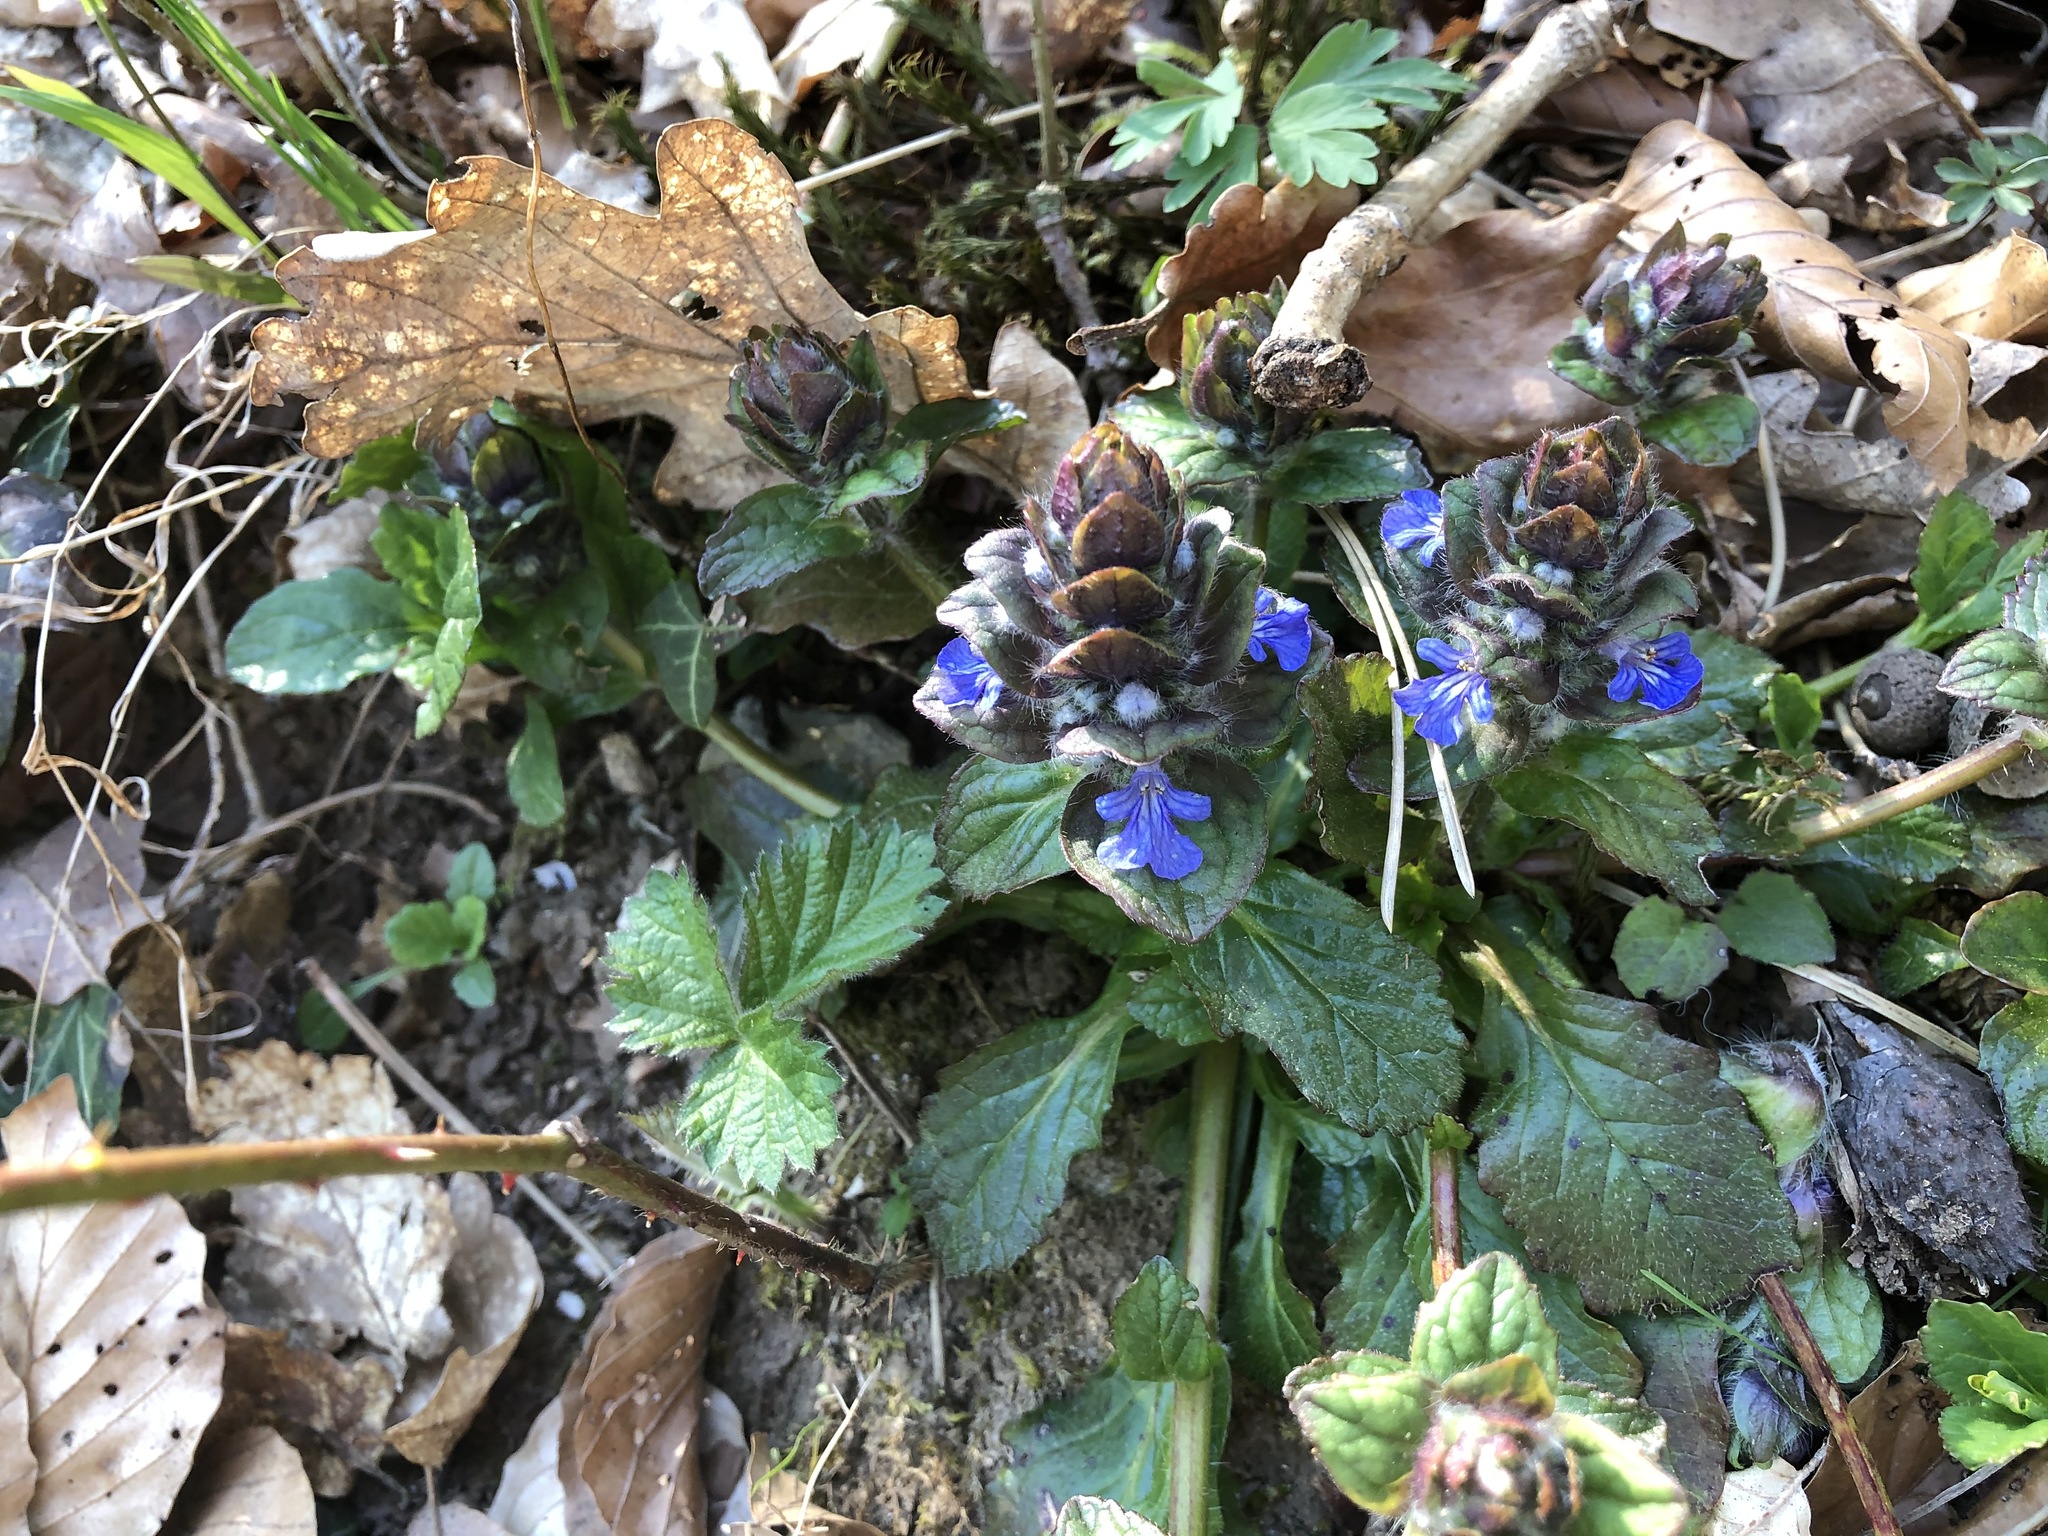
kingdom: Plantae
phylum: Tracheophyta
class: Magnoliopsida
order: Lamiales
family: Lamiaceae
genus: Ajuga
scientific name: Ajuga reptans
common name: Bugle
